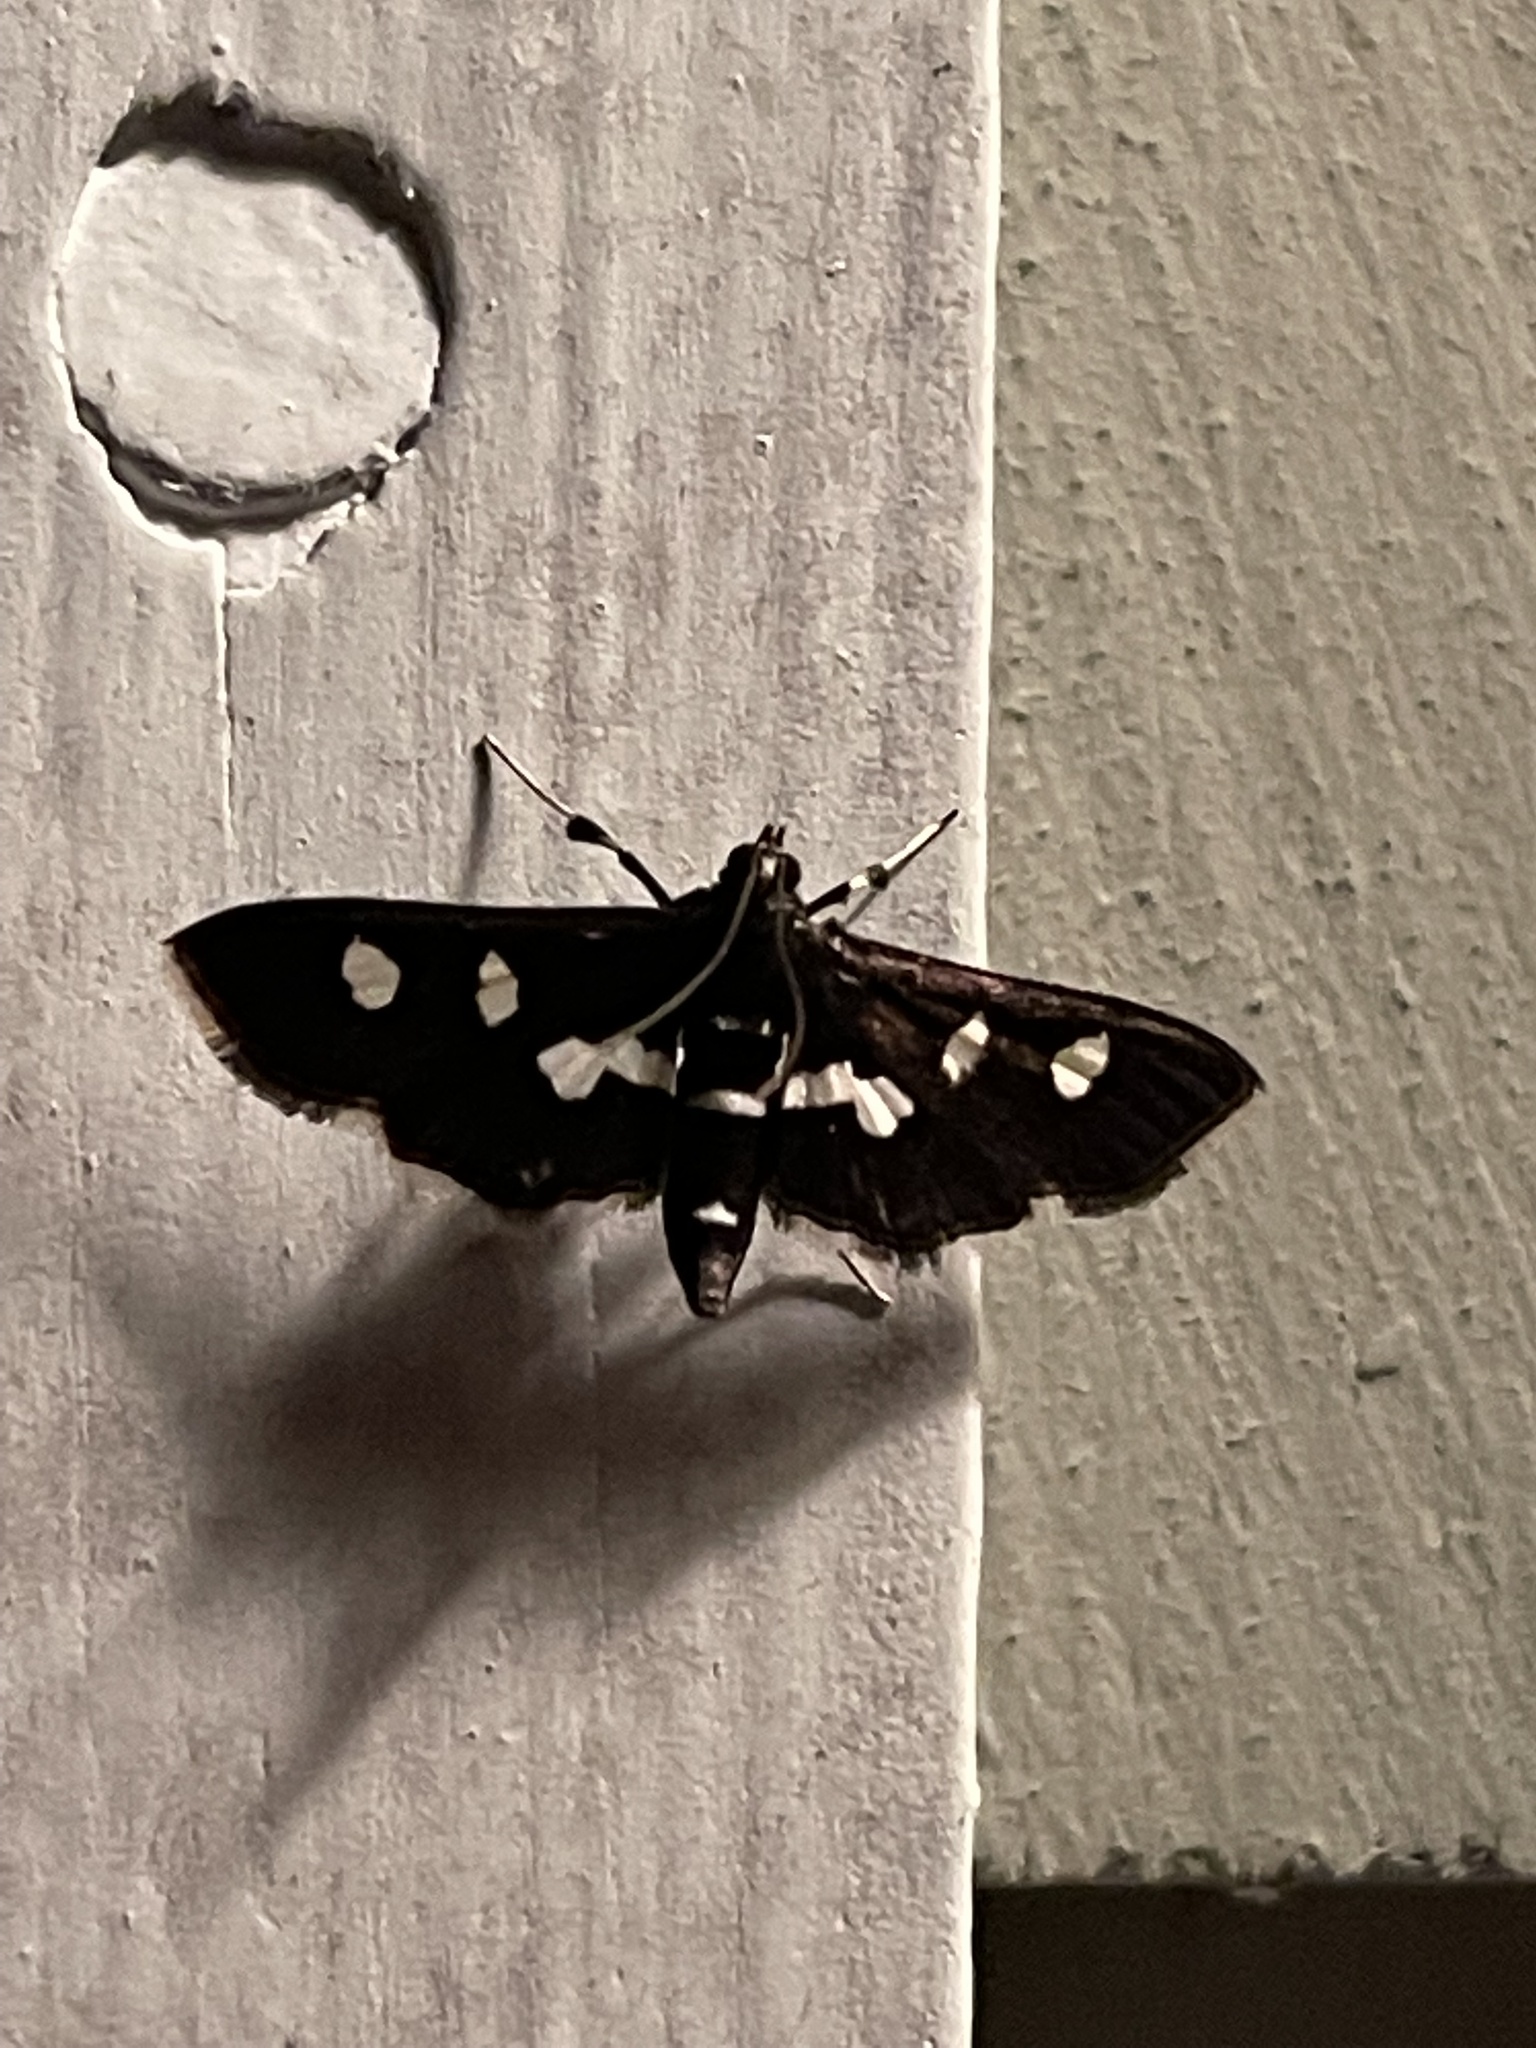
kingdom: Animalia
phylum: Arthropoda
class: Insecta
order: Lepidoptera
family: Crambidae
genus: Desmia
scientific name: Desmia
